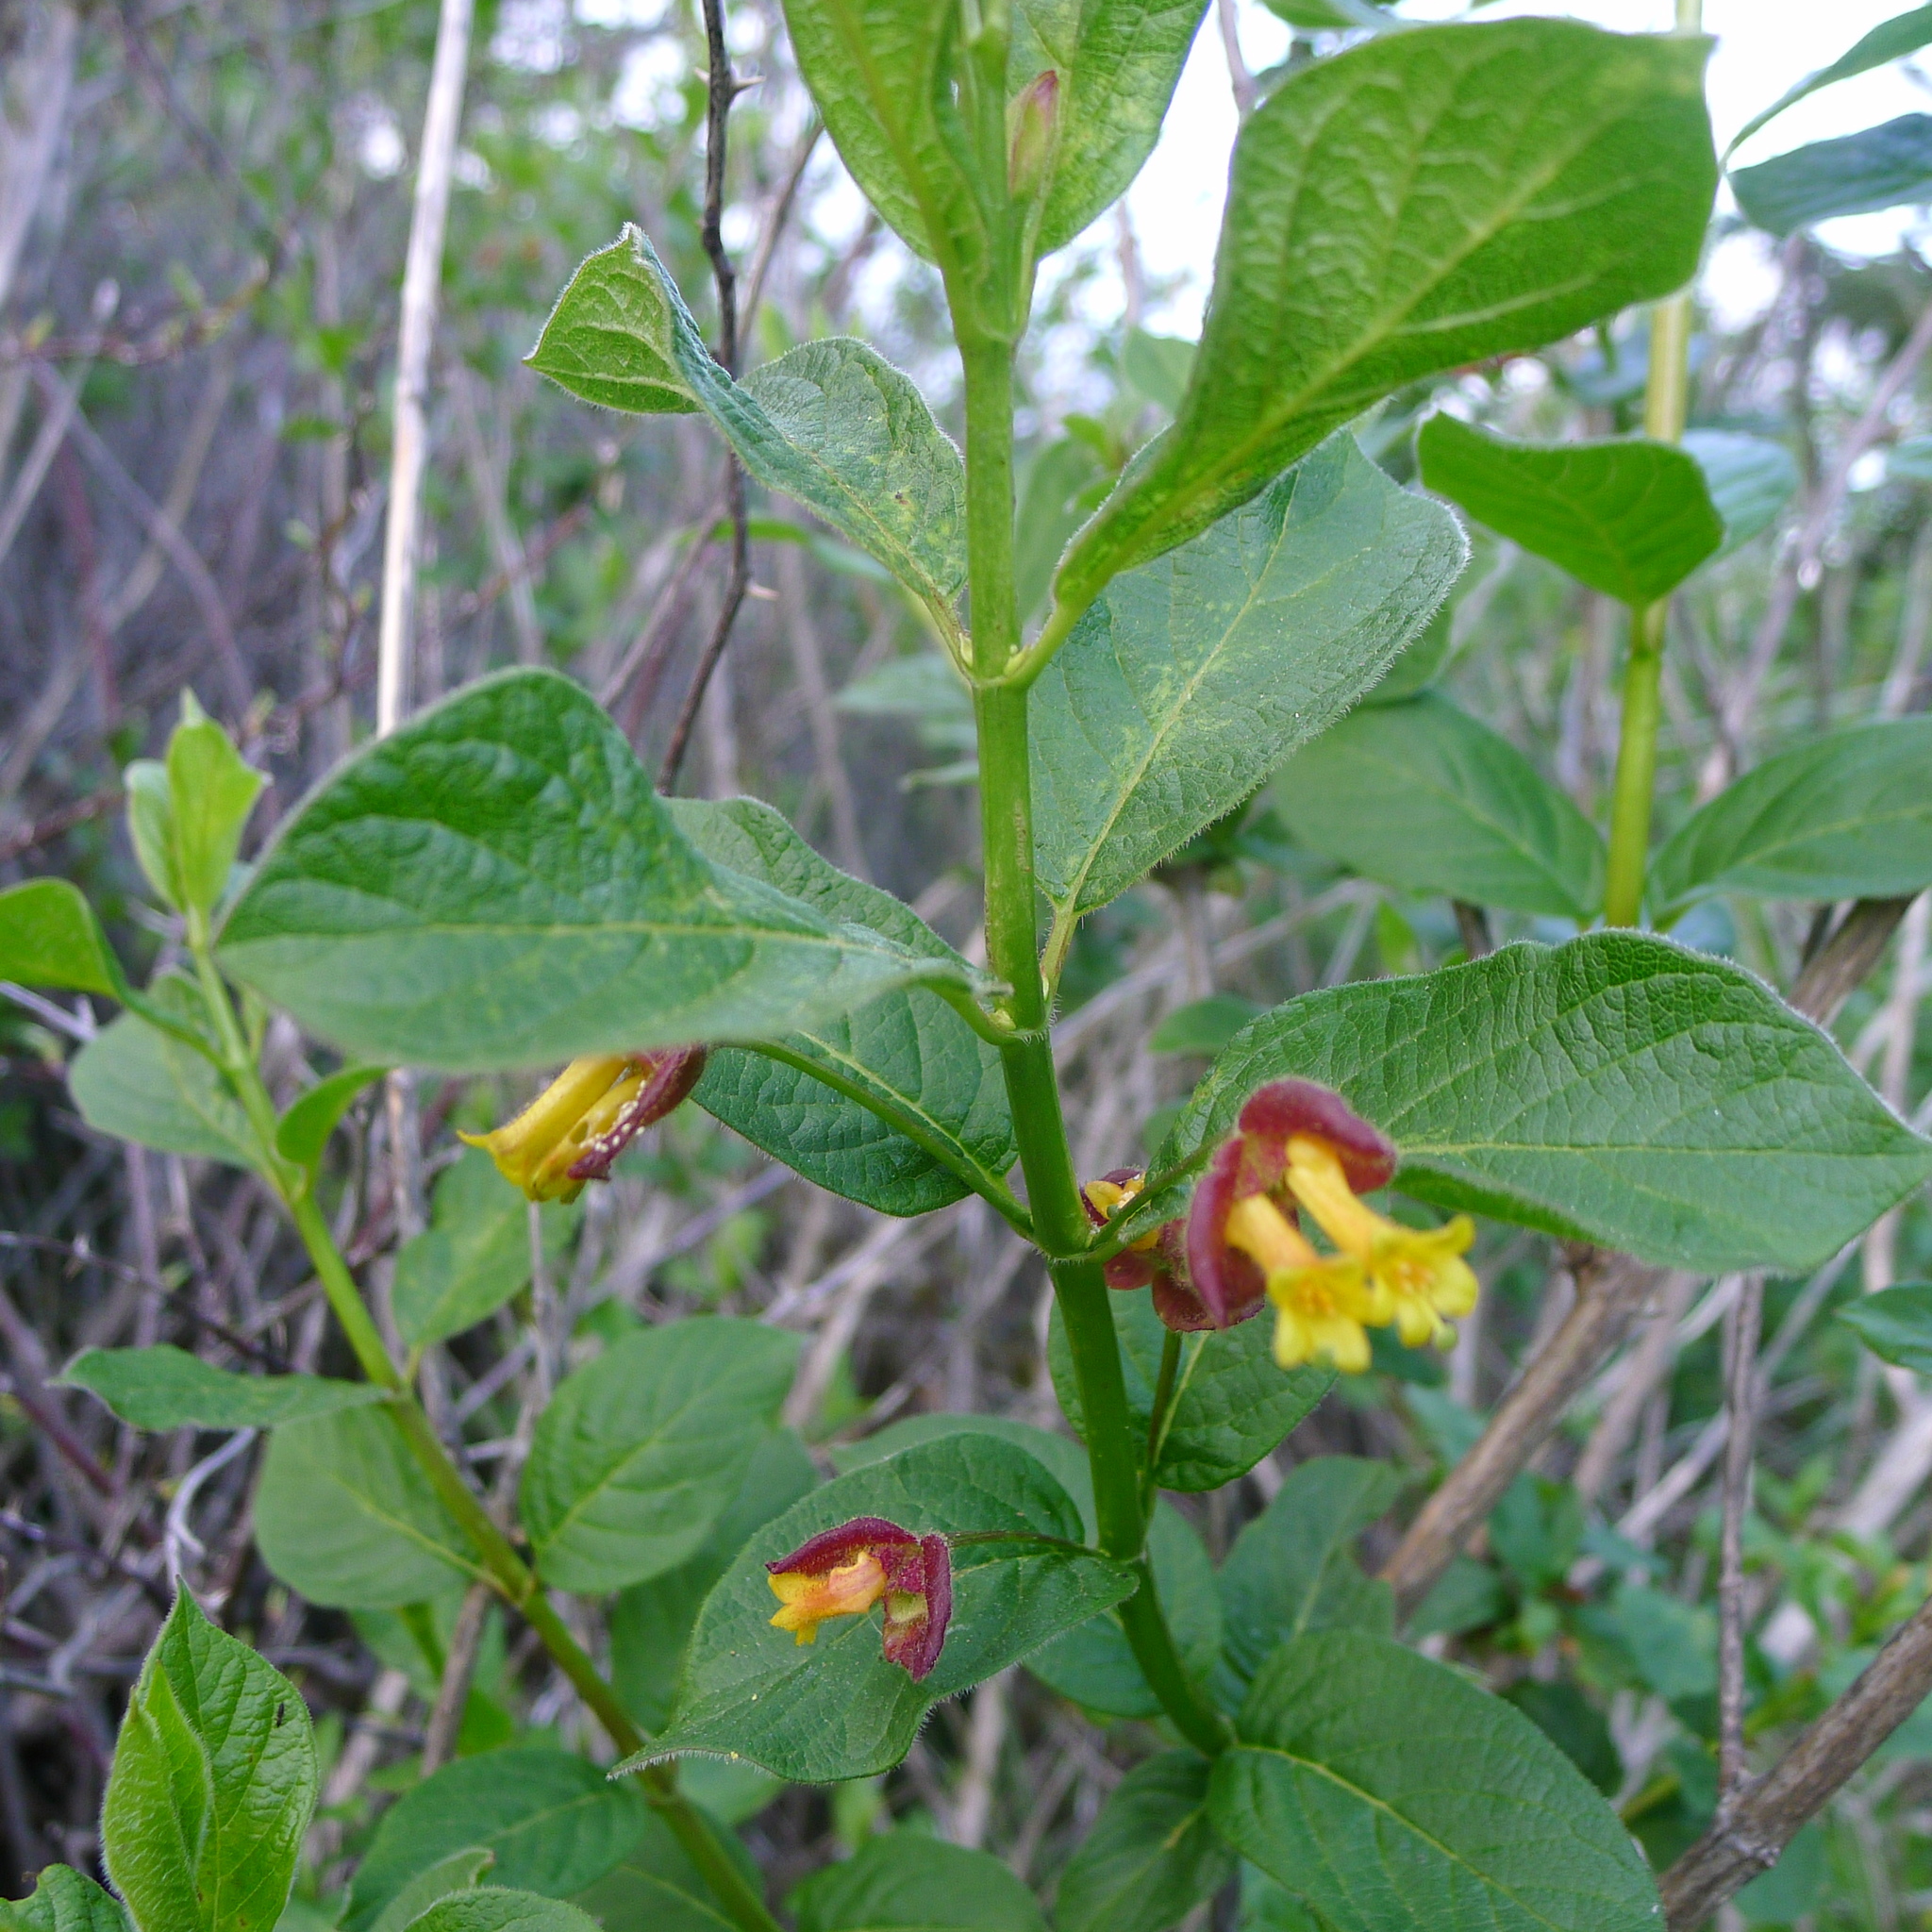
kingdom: Plantae
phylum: Tracheophyta
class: Magnoliopsida
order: Dipsacales
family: Caprifoliaceae
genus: Lonicera
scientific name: Lonicera involucrata
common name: Californian honeysuckle
